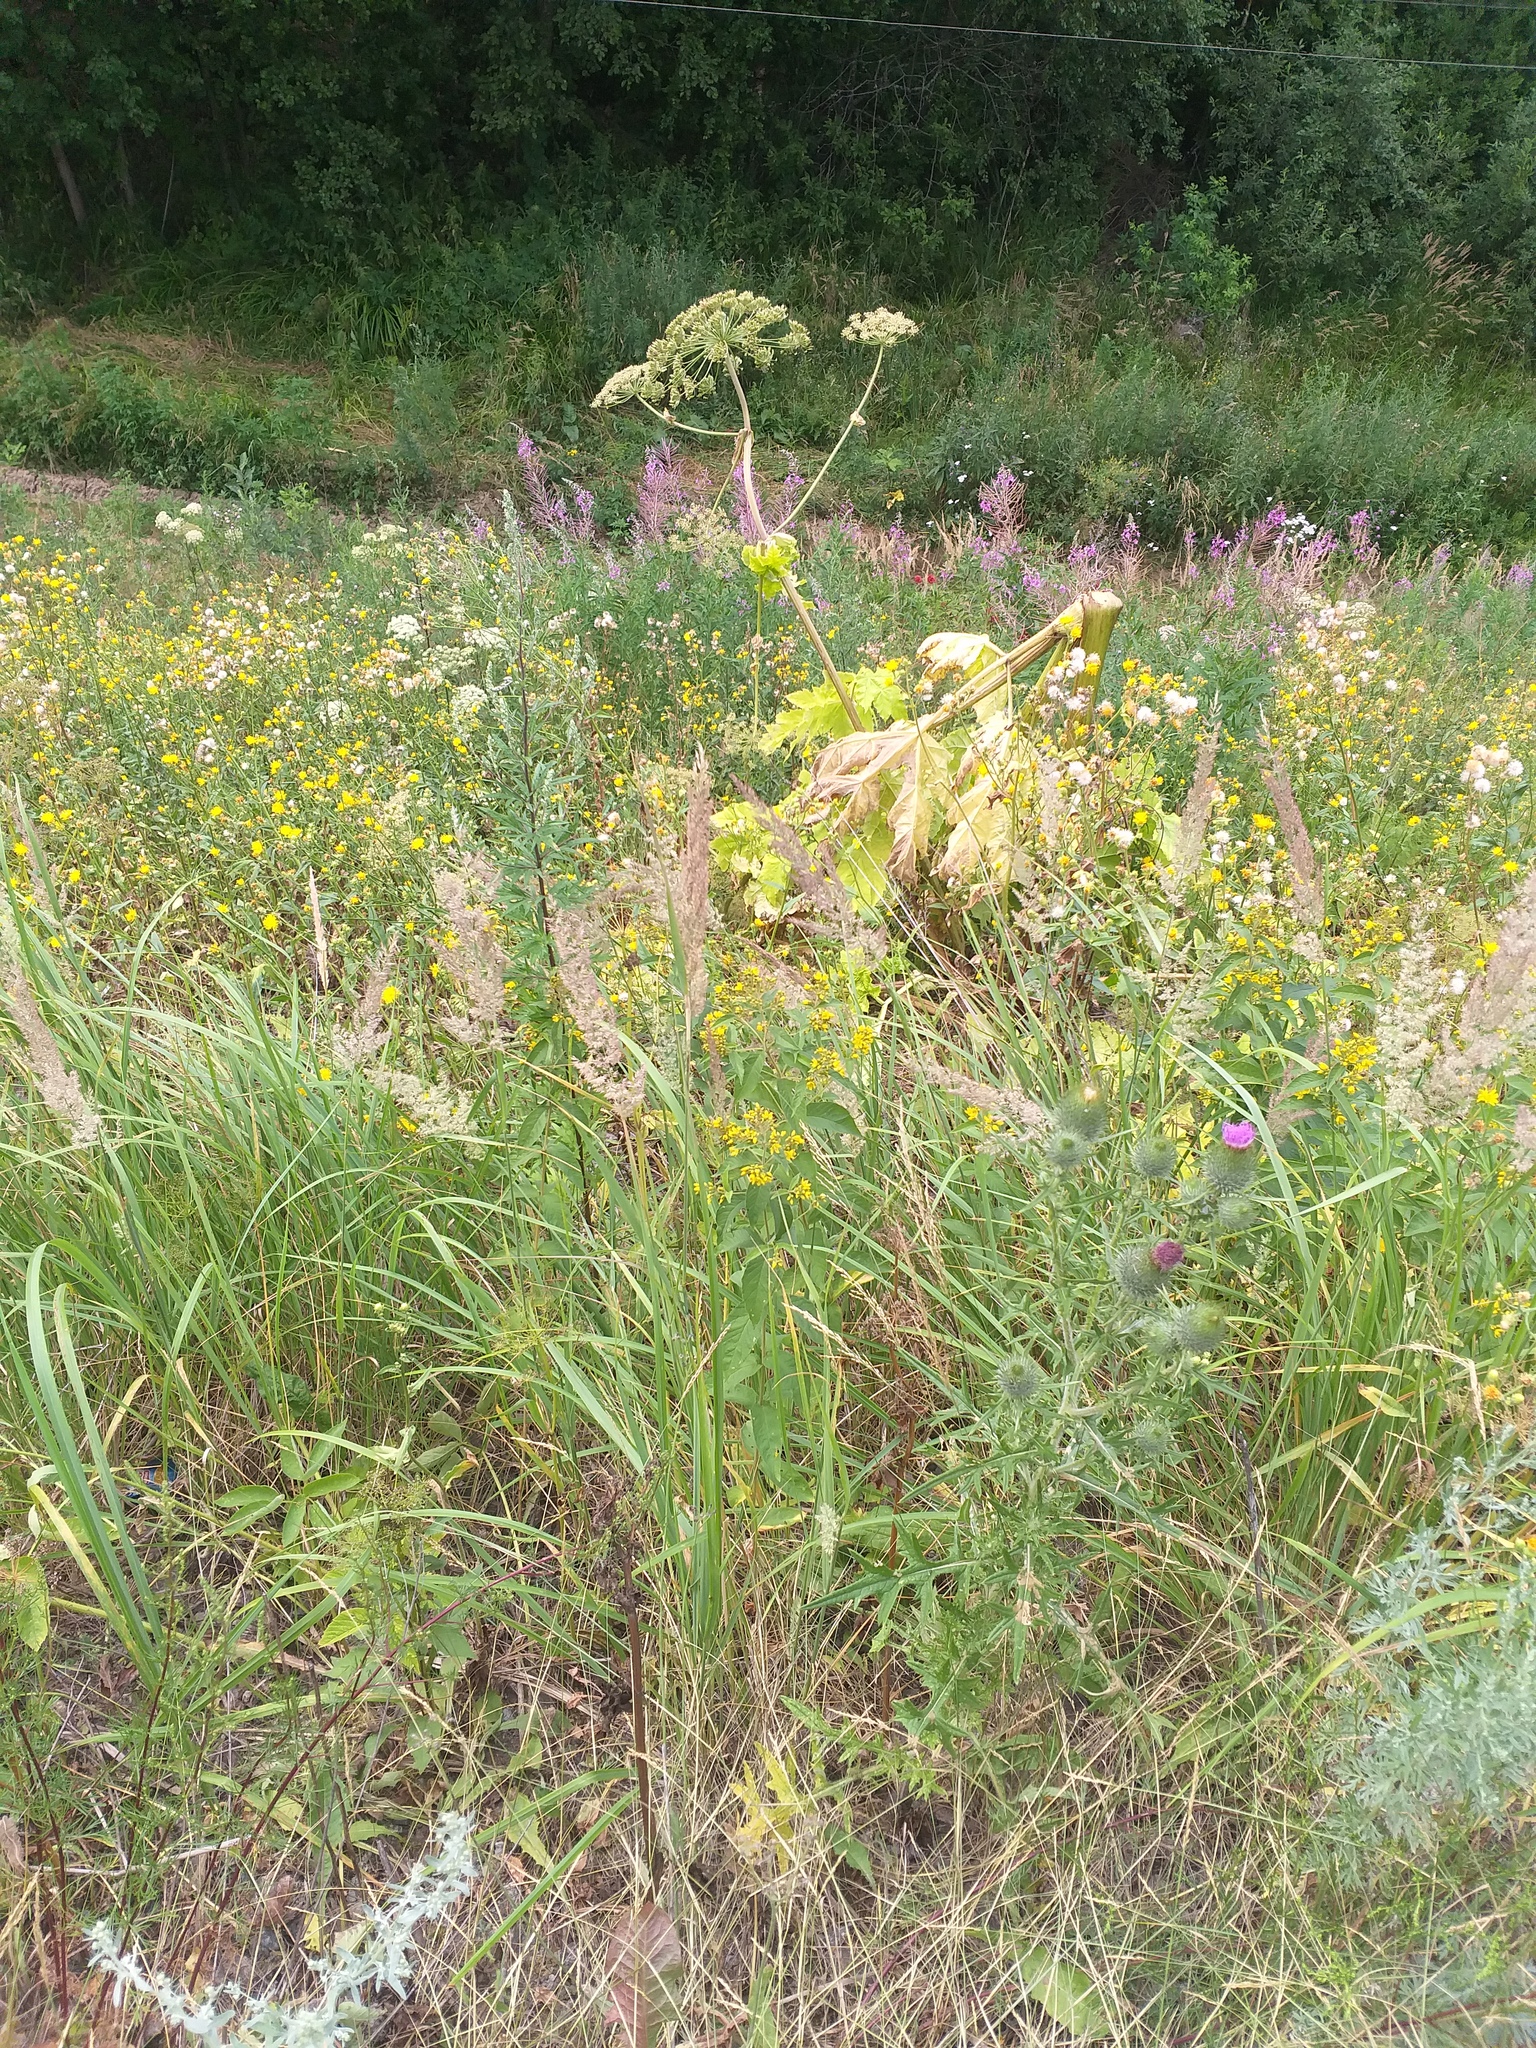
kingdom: Plantae
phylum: Tracheophyta
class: Magnoliopsida
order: Ericales
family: Primulaceae
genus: Lysimachia
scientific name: Lysimachia vulgaris
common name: Yellow loosestrife
